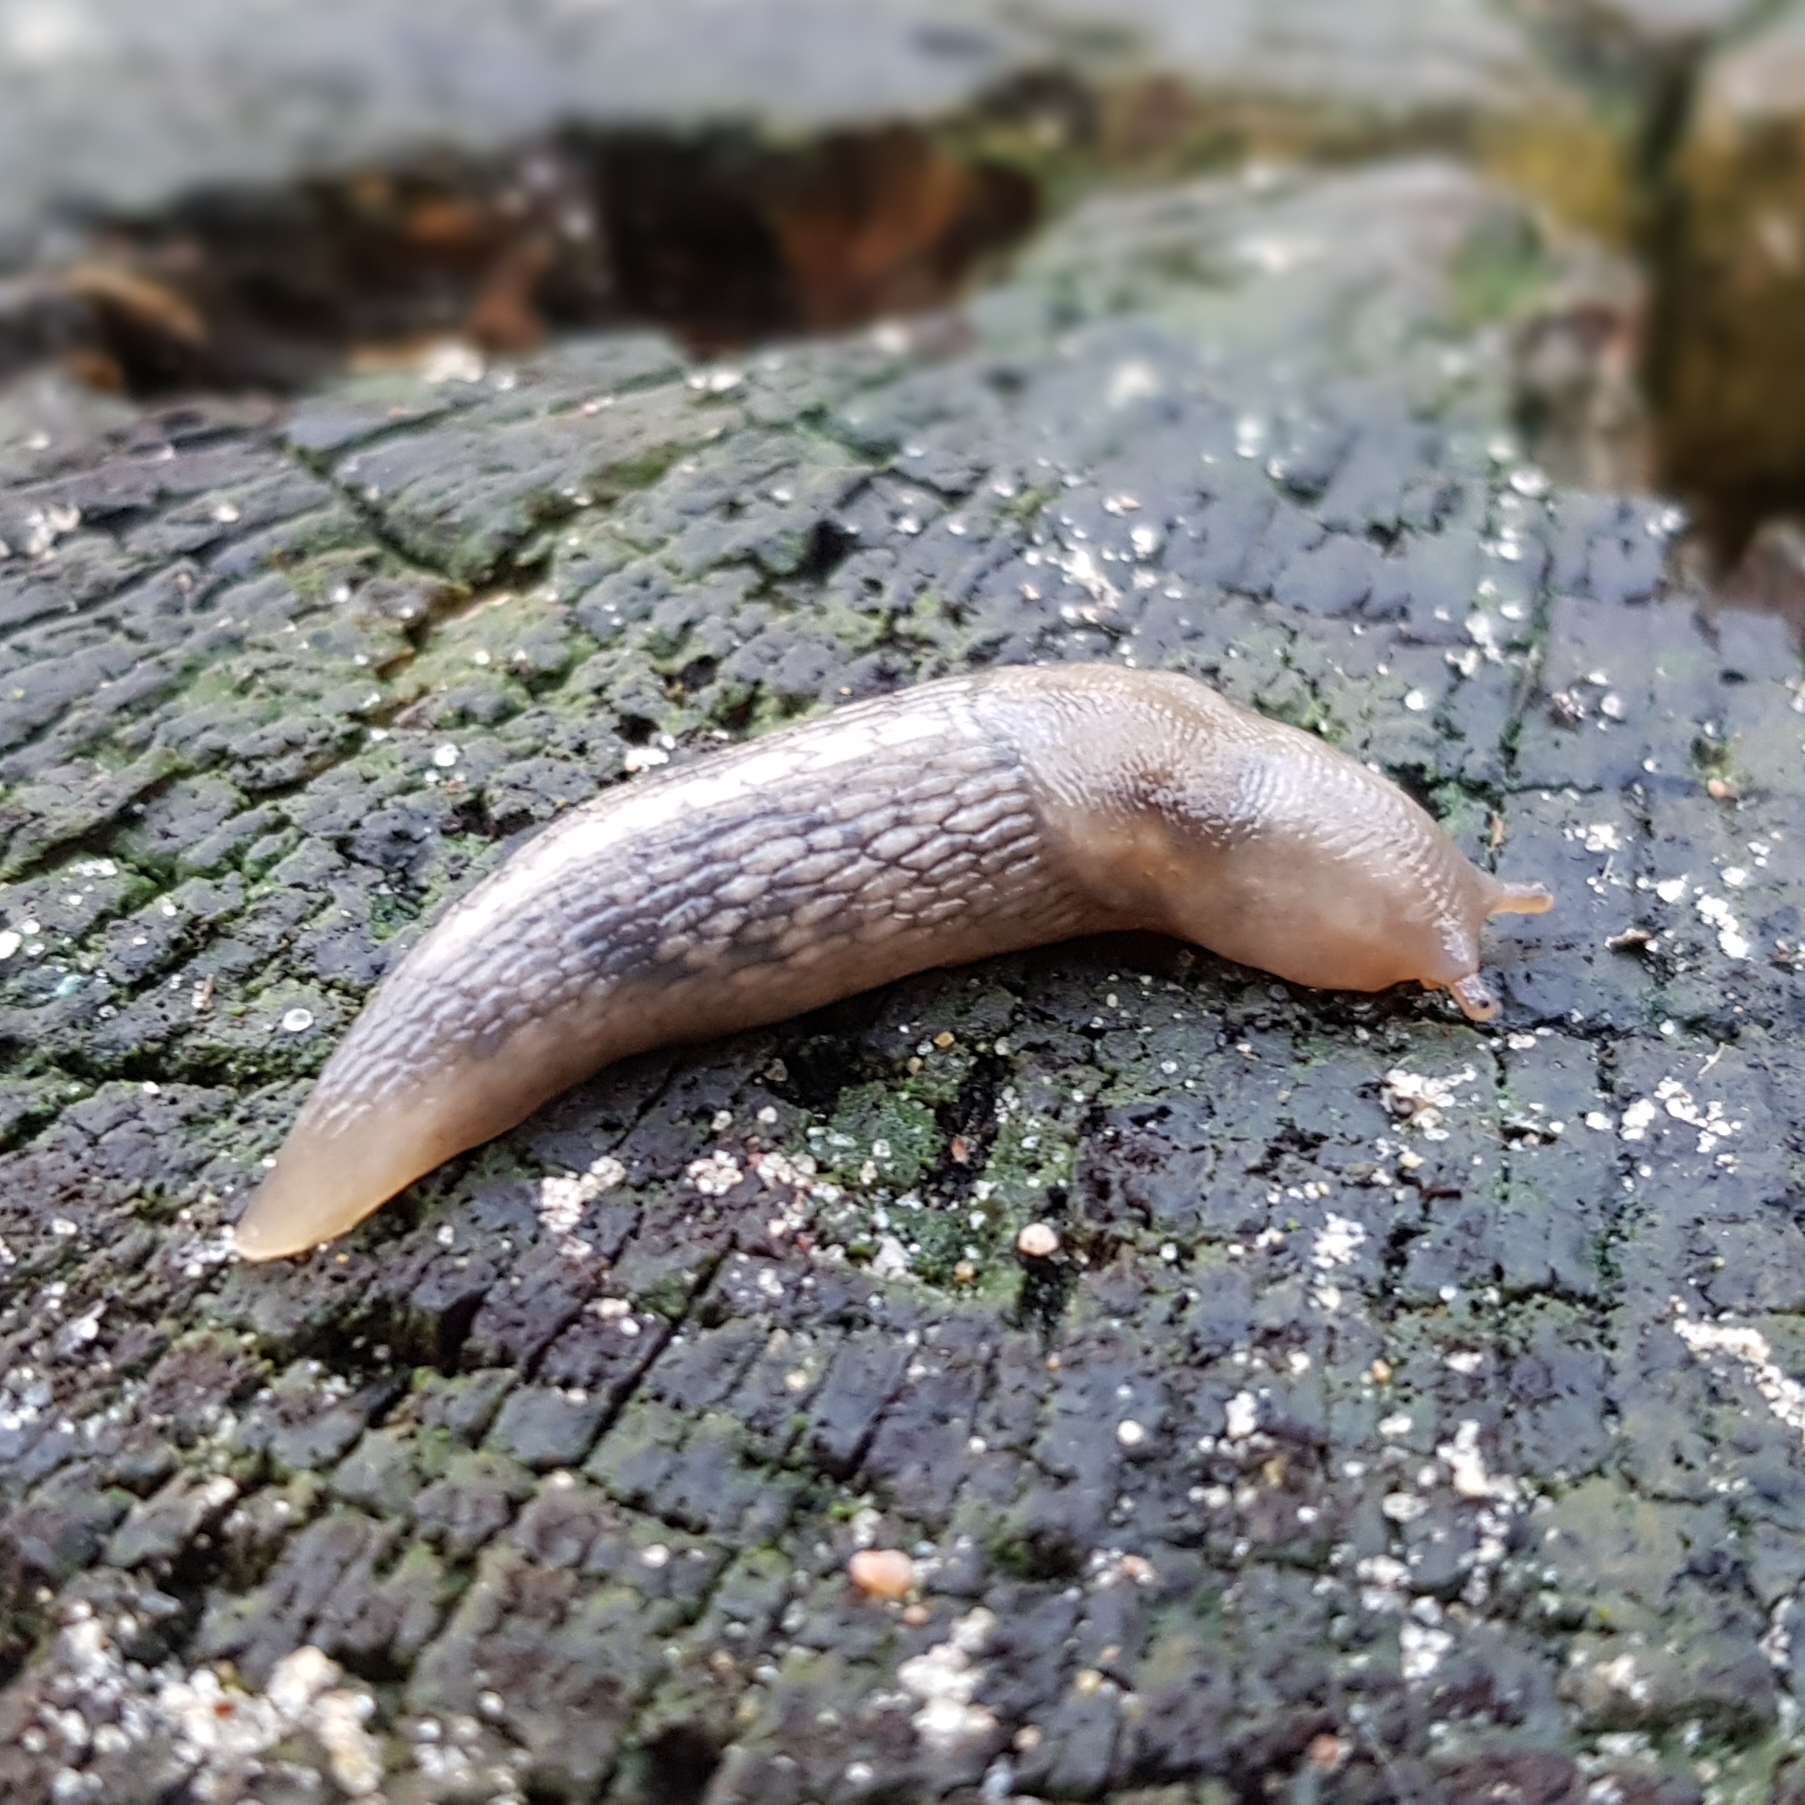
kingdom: Animalia
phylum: Mollusca
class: Gastropoda
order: Stylommatophora
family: Limacidae
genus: Lehmannia
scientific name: Lehmannia marginata
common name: Tree slug
